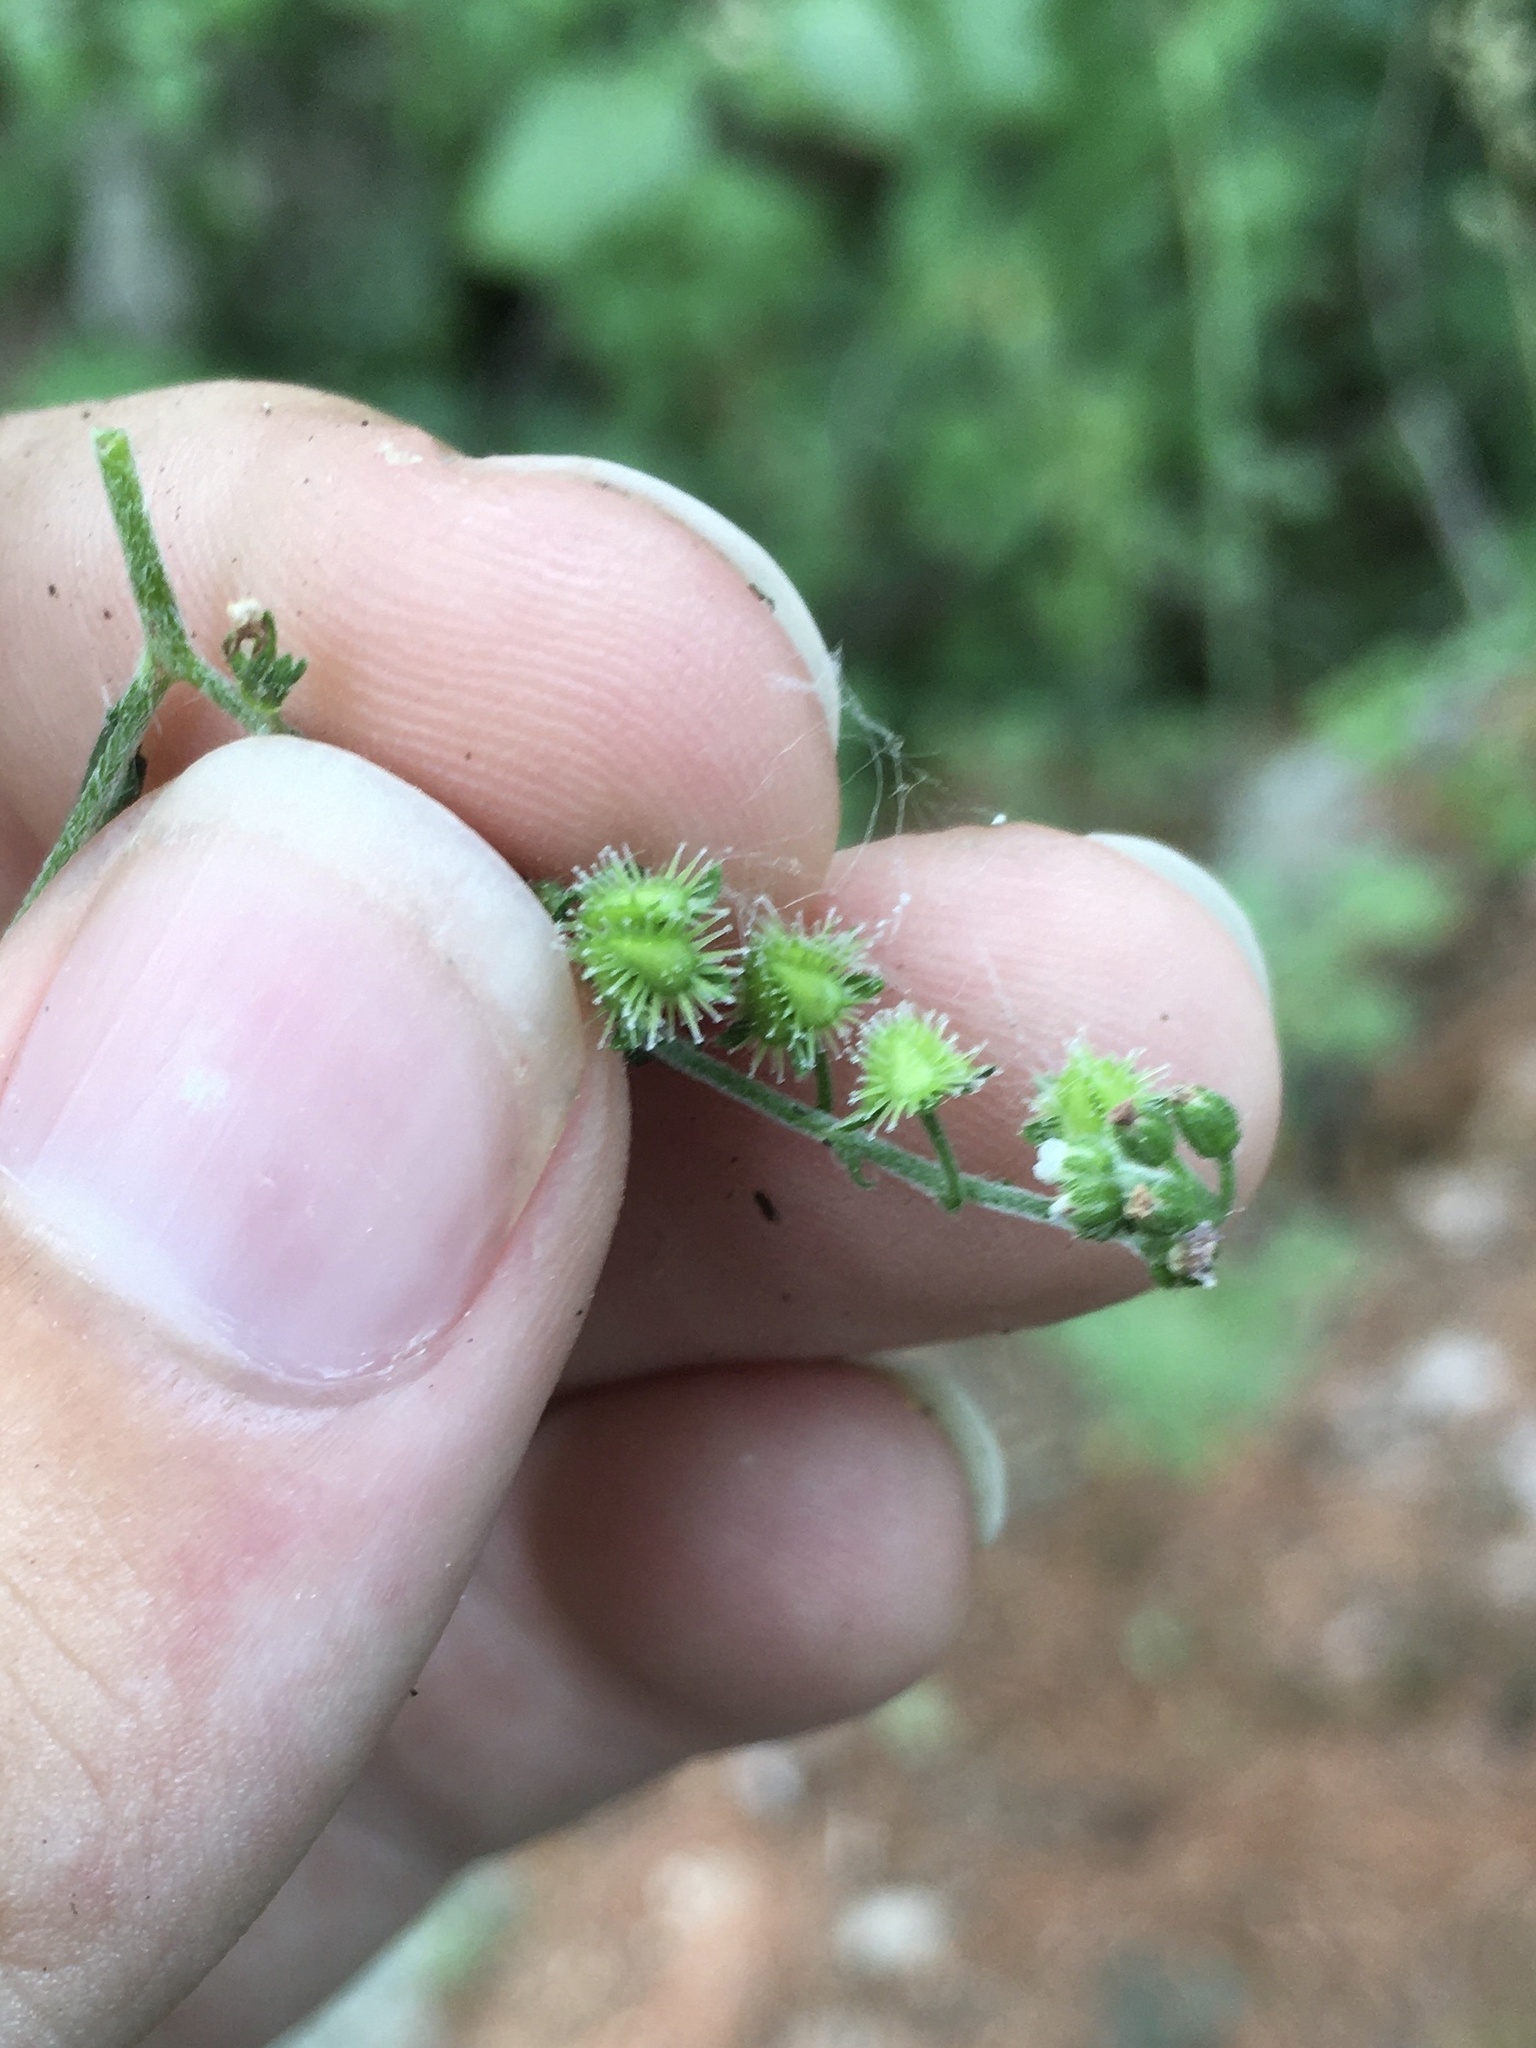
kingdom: Plantae
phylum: Tracheophyta
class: Magnoliopsida
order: Boraginales
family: Boraginaceae
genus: Hackelia
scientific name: Hackelia deflexa
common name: Nodding stickseed
